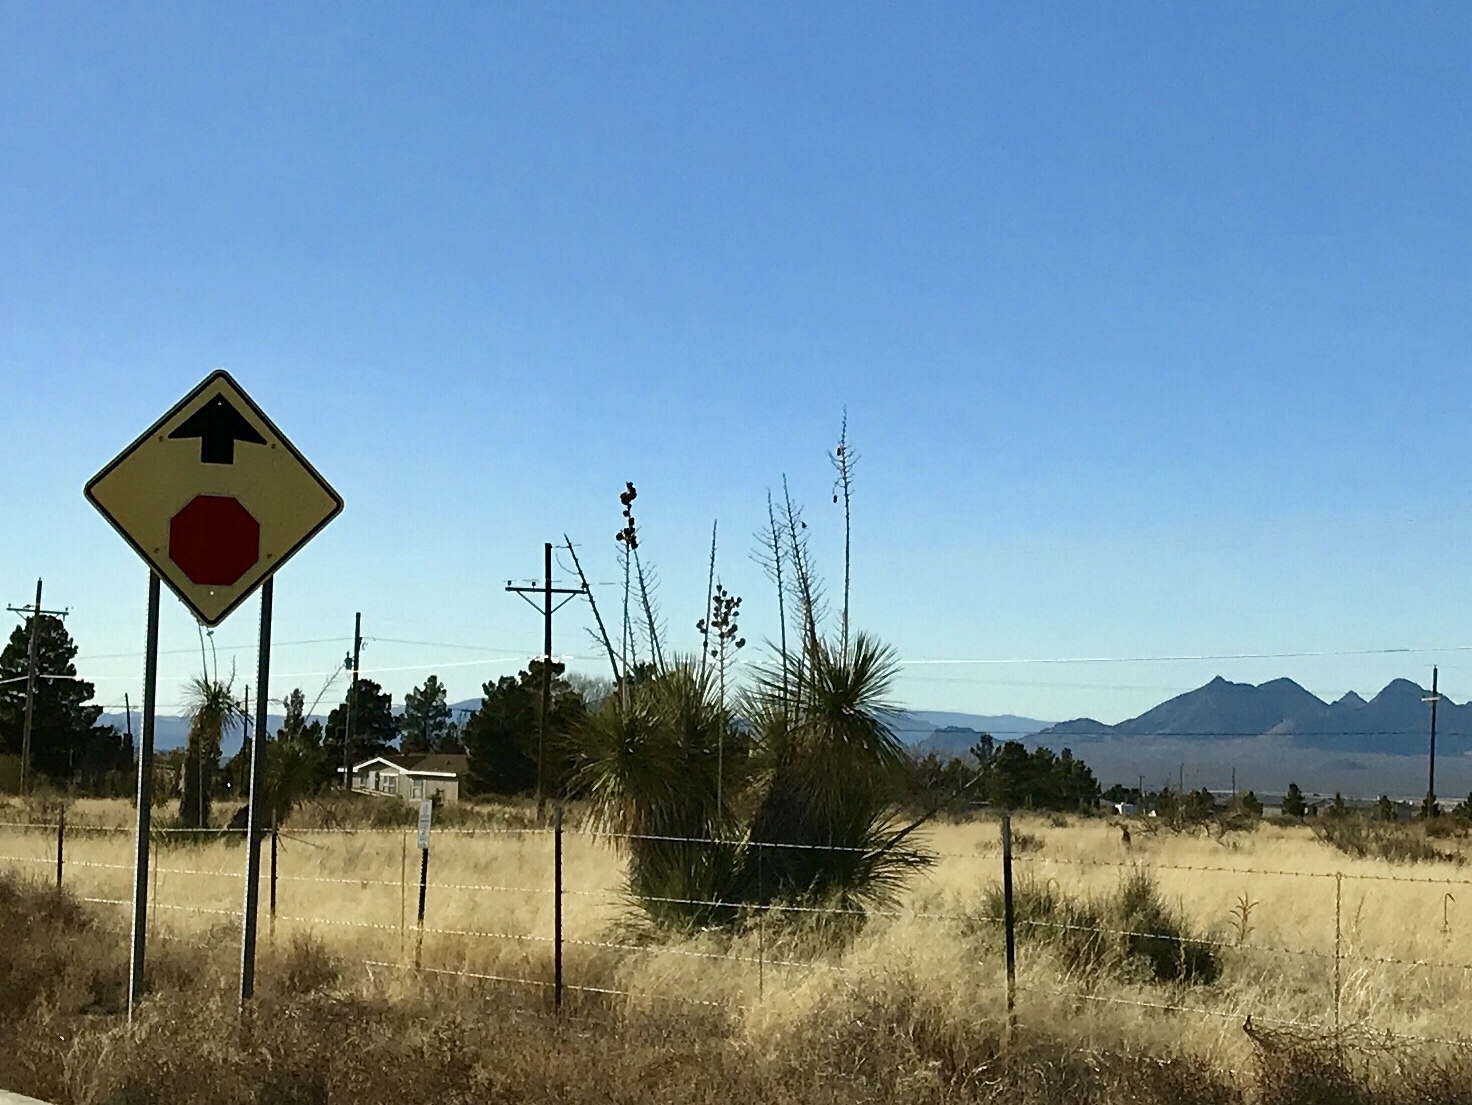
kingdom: Plantae
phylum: Tracheophyta
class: Liliopsida
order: Asparagales
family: Asparagaceae
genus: Yucca
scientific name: Yucca elata
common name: Palmella
